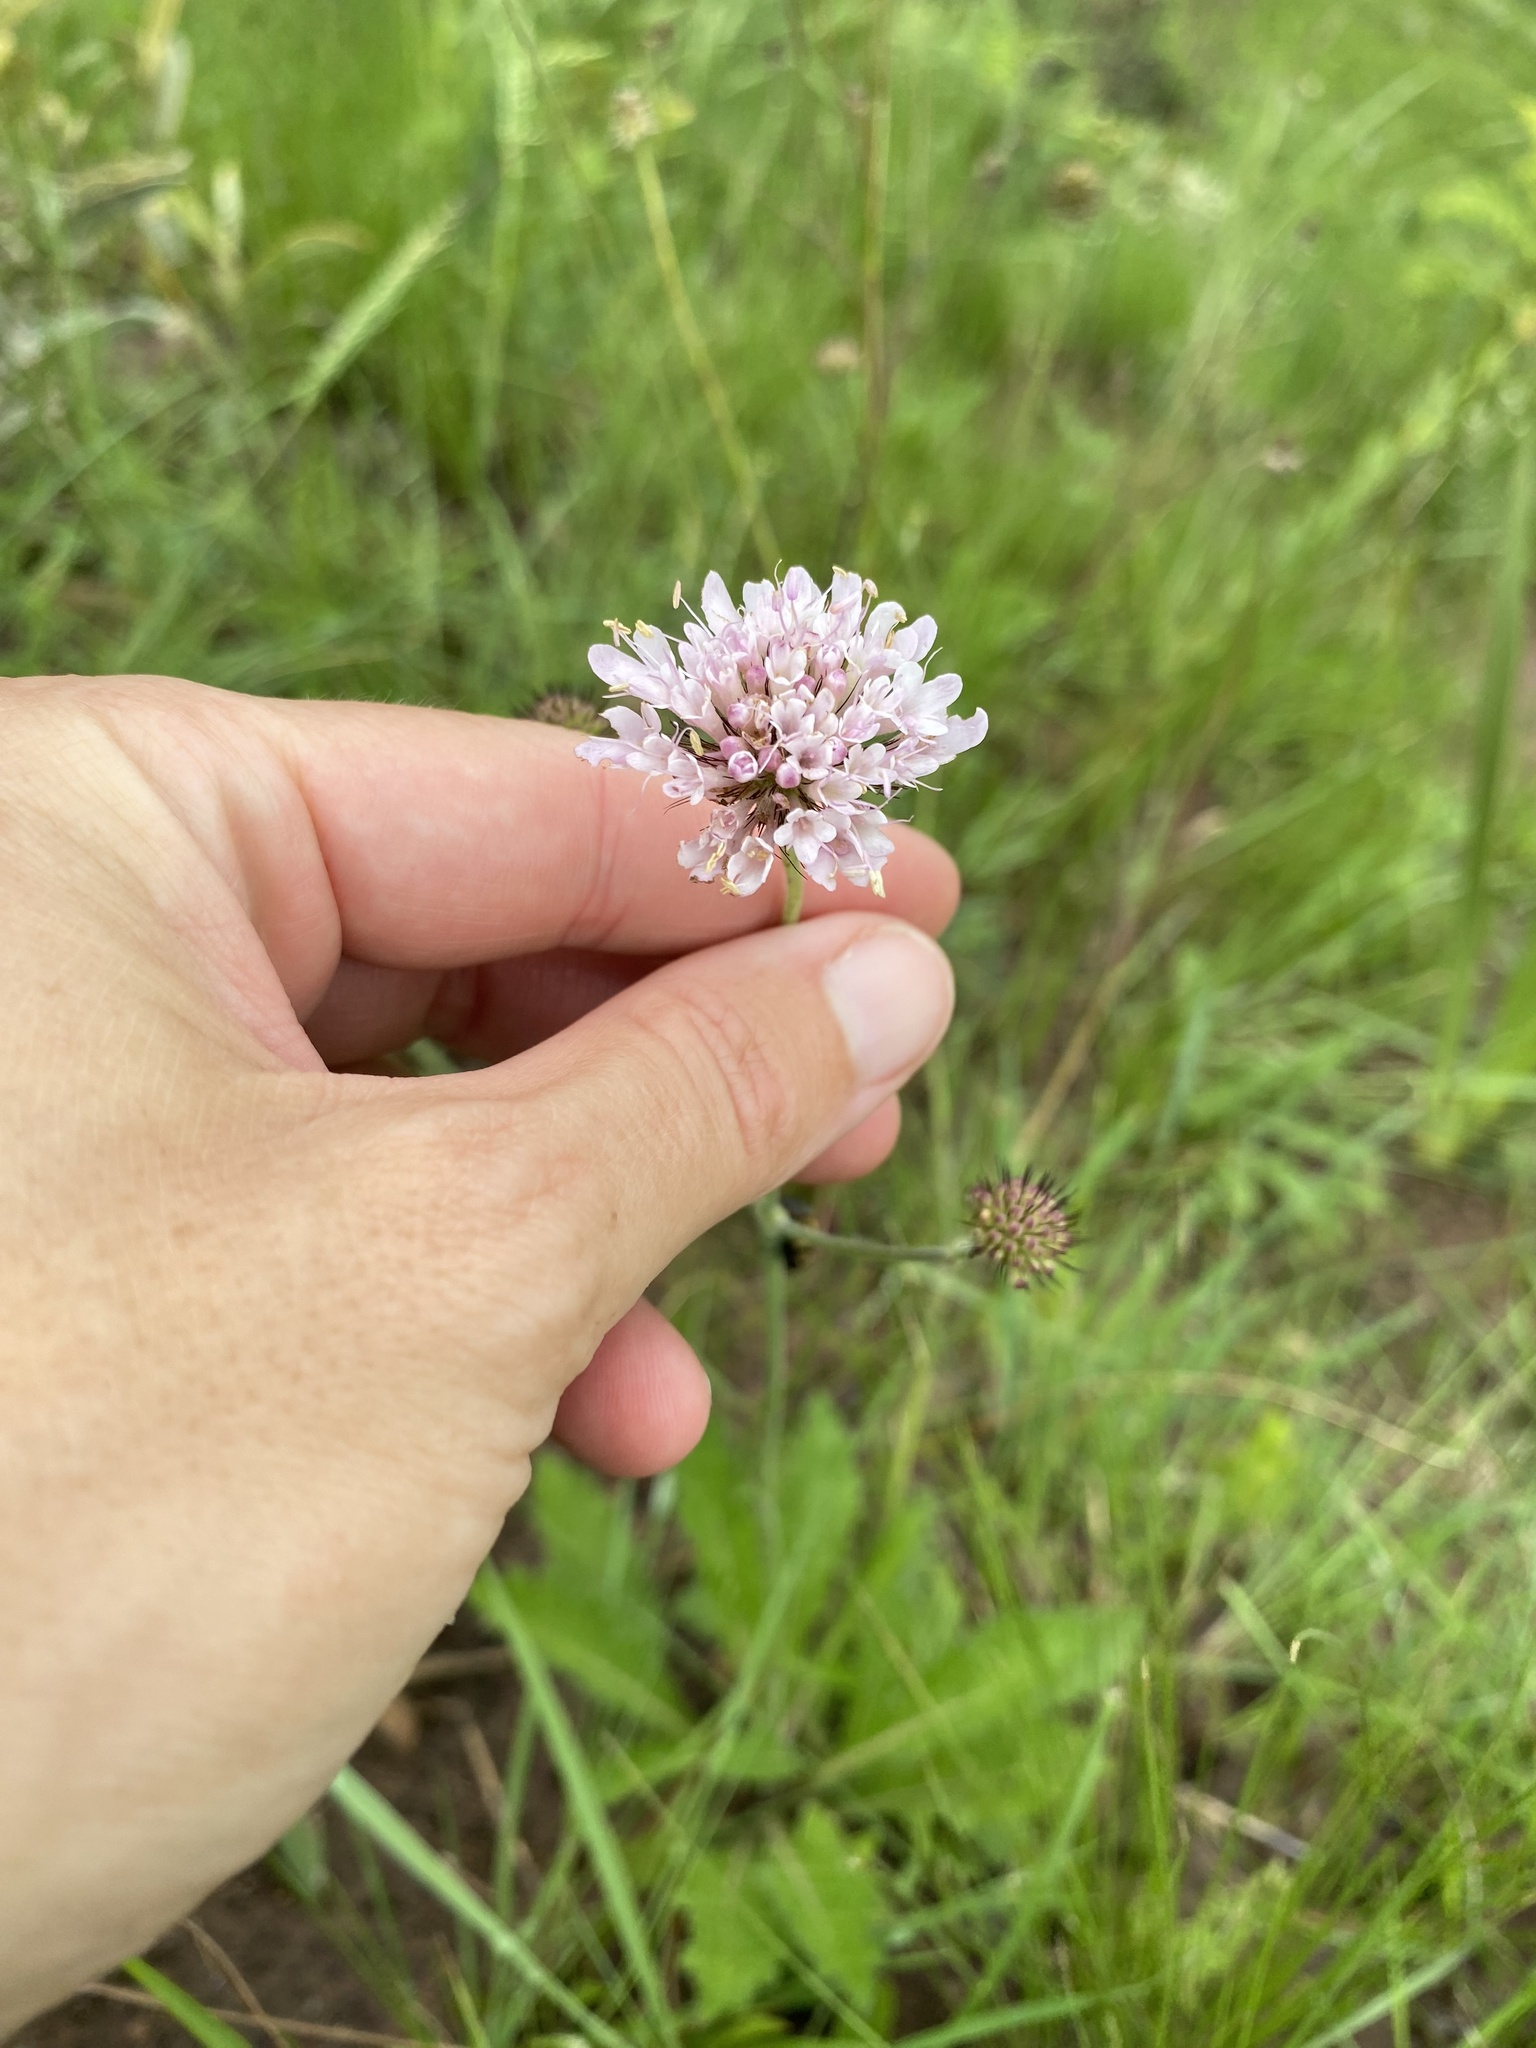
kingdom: Plantae
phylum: Tracheophyta
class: Magnoliopsida
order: Dipsacales
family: Caprifoliaceae
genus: Scabiosa
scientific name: Scabiosa columbaria
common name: Small scabious
